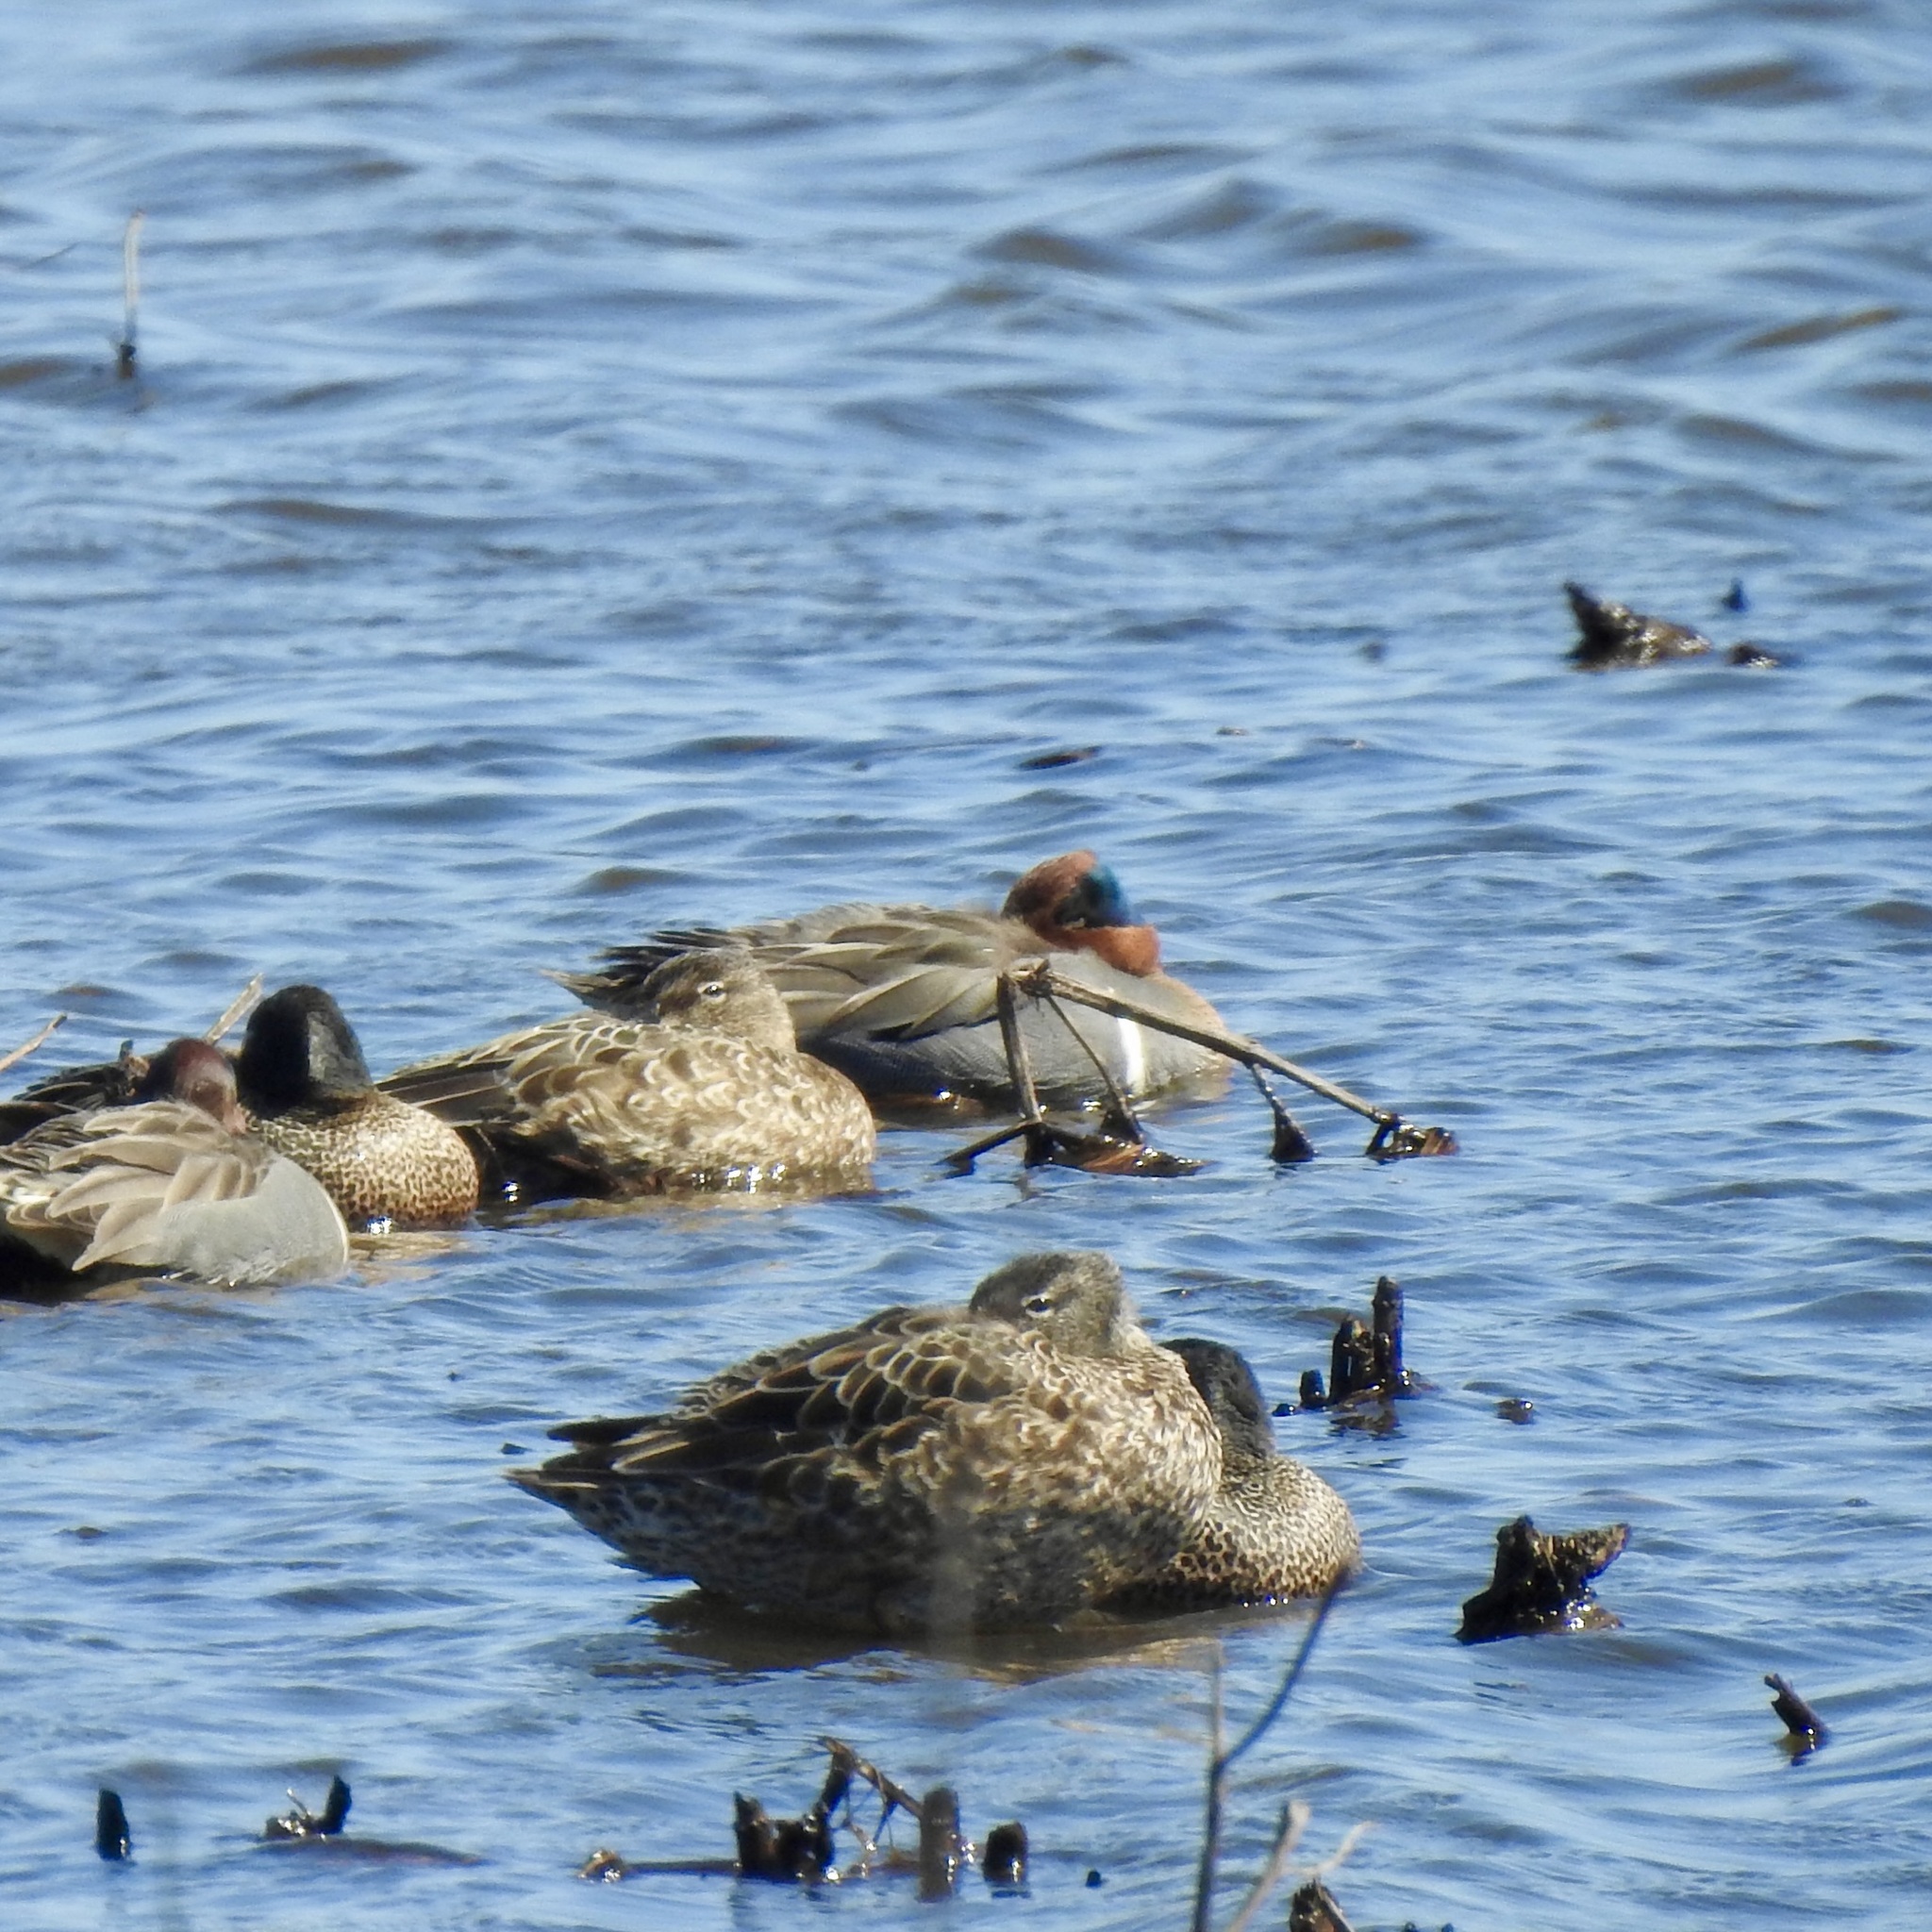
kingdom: Animalia
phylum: Chordata
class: Aves
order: Anseriformes
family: Anatidae
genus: Anas
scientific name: Anas crecca
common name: Eurasian teal
